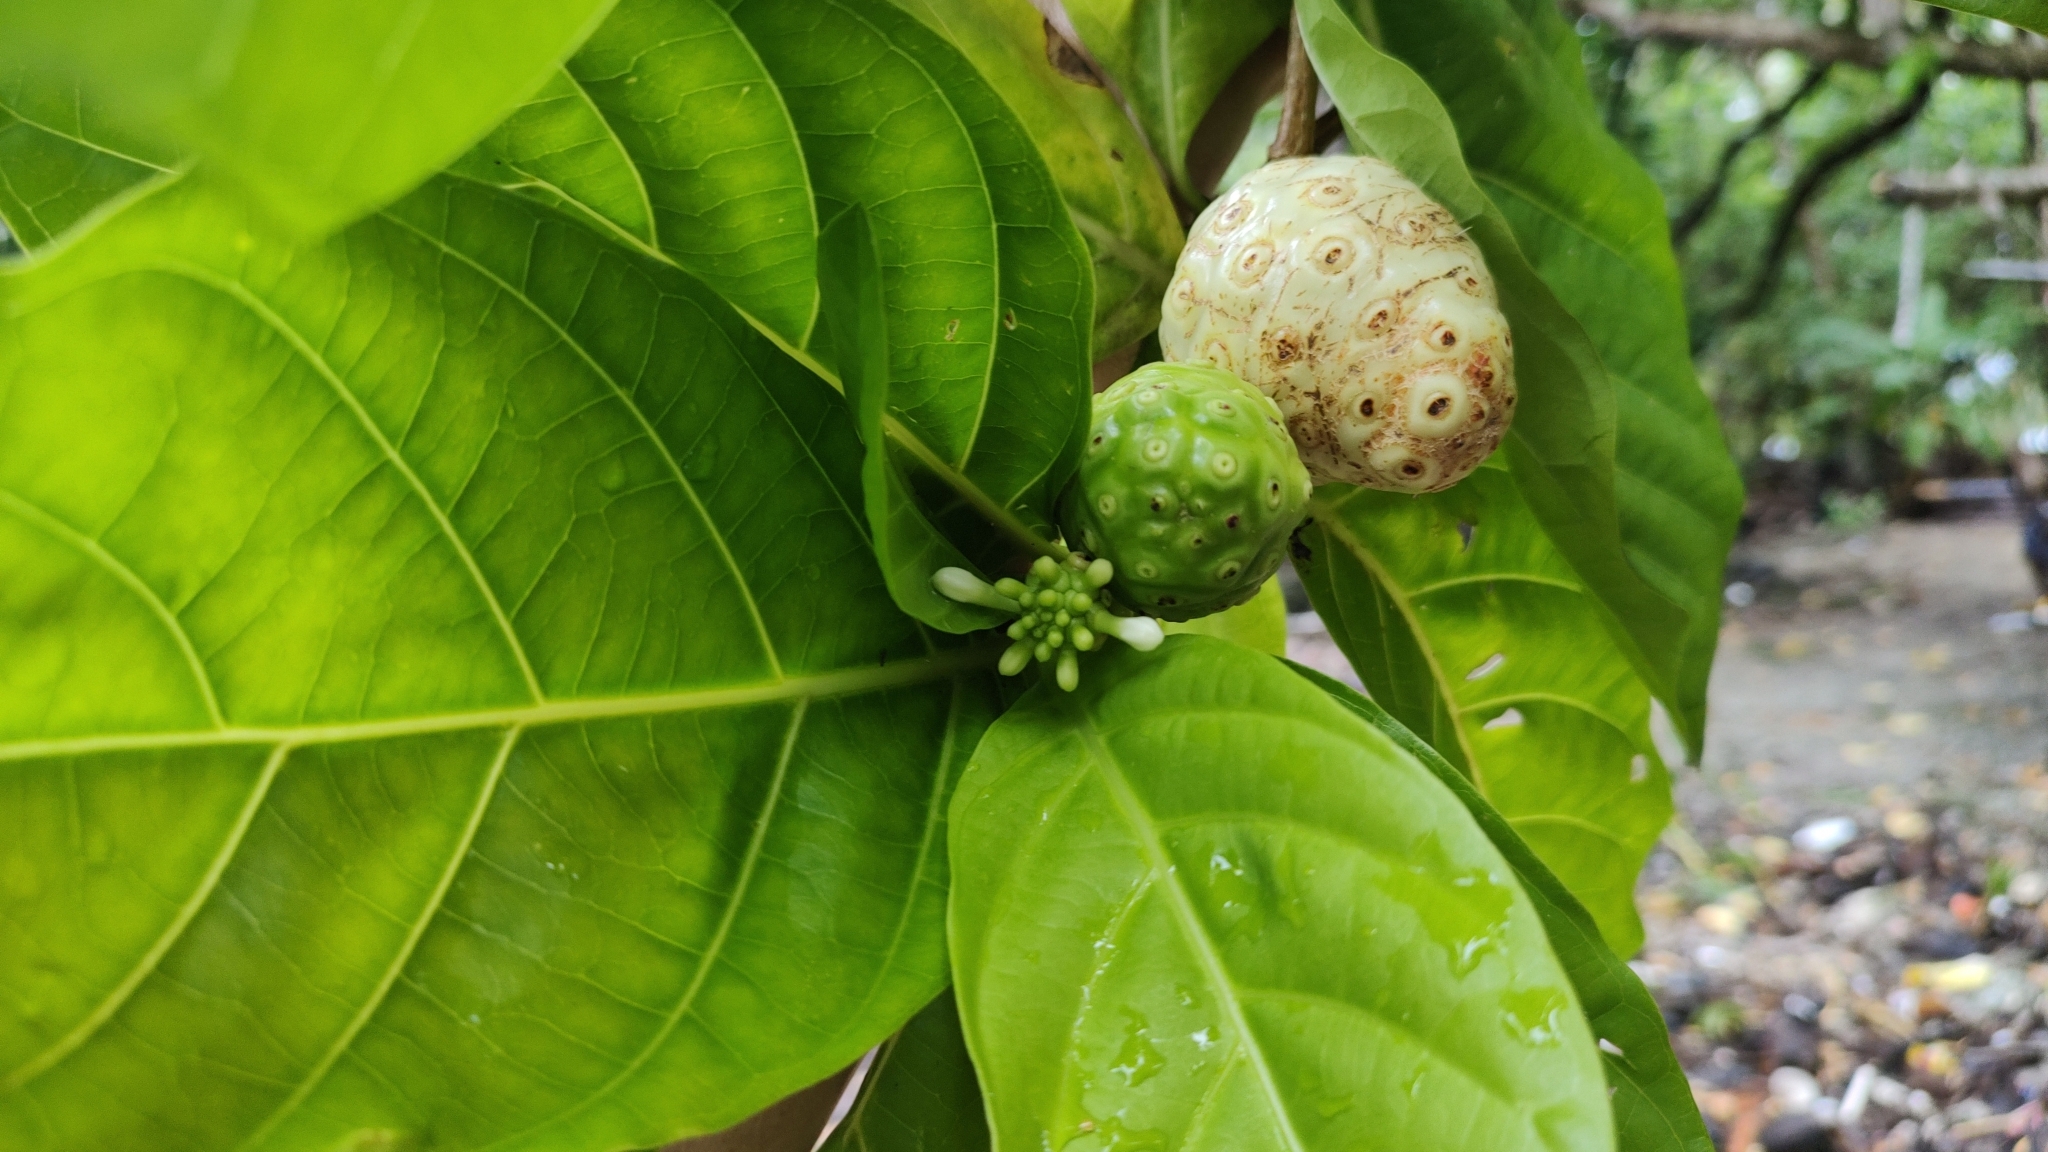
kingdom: Plantae
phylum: Tracheophyta
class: Magnoliopsida
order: Gentianales
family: Rubiaceae
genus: Morinda
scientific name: Morinda citrifolia
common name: Indian-mulberry
